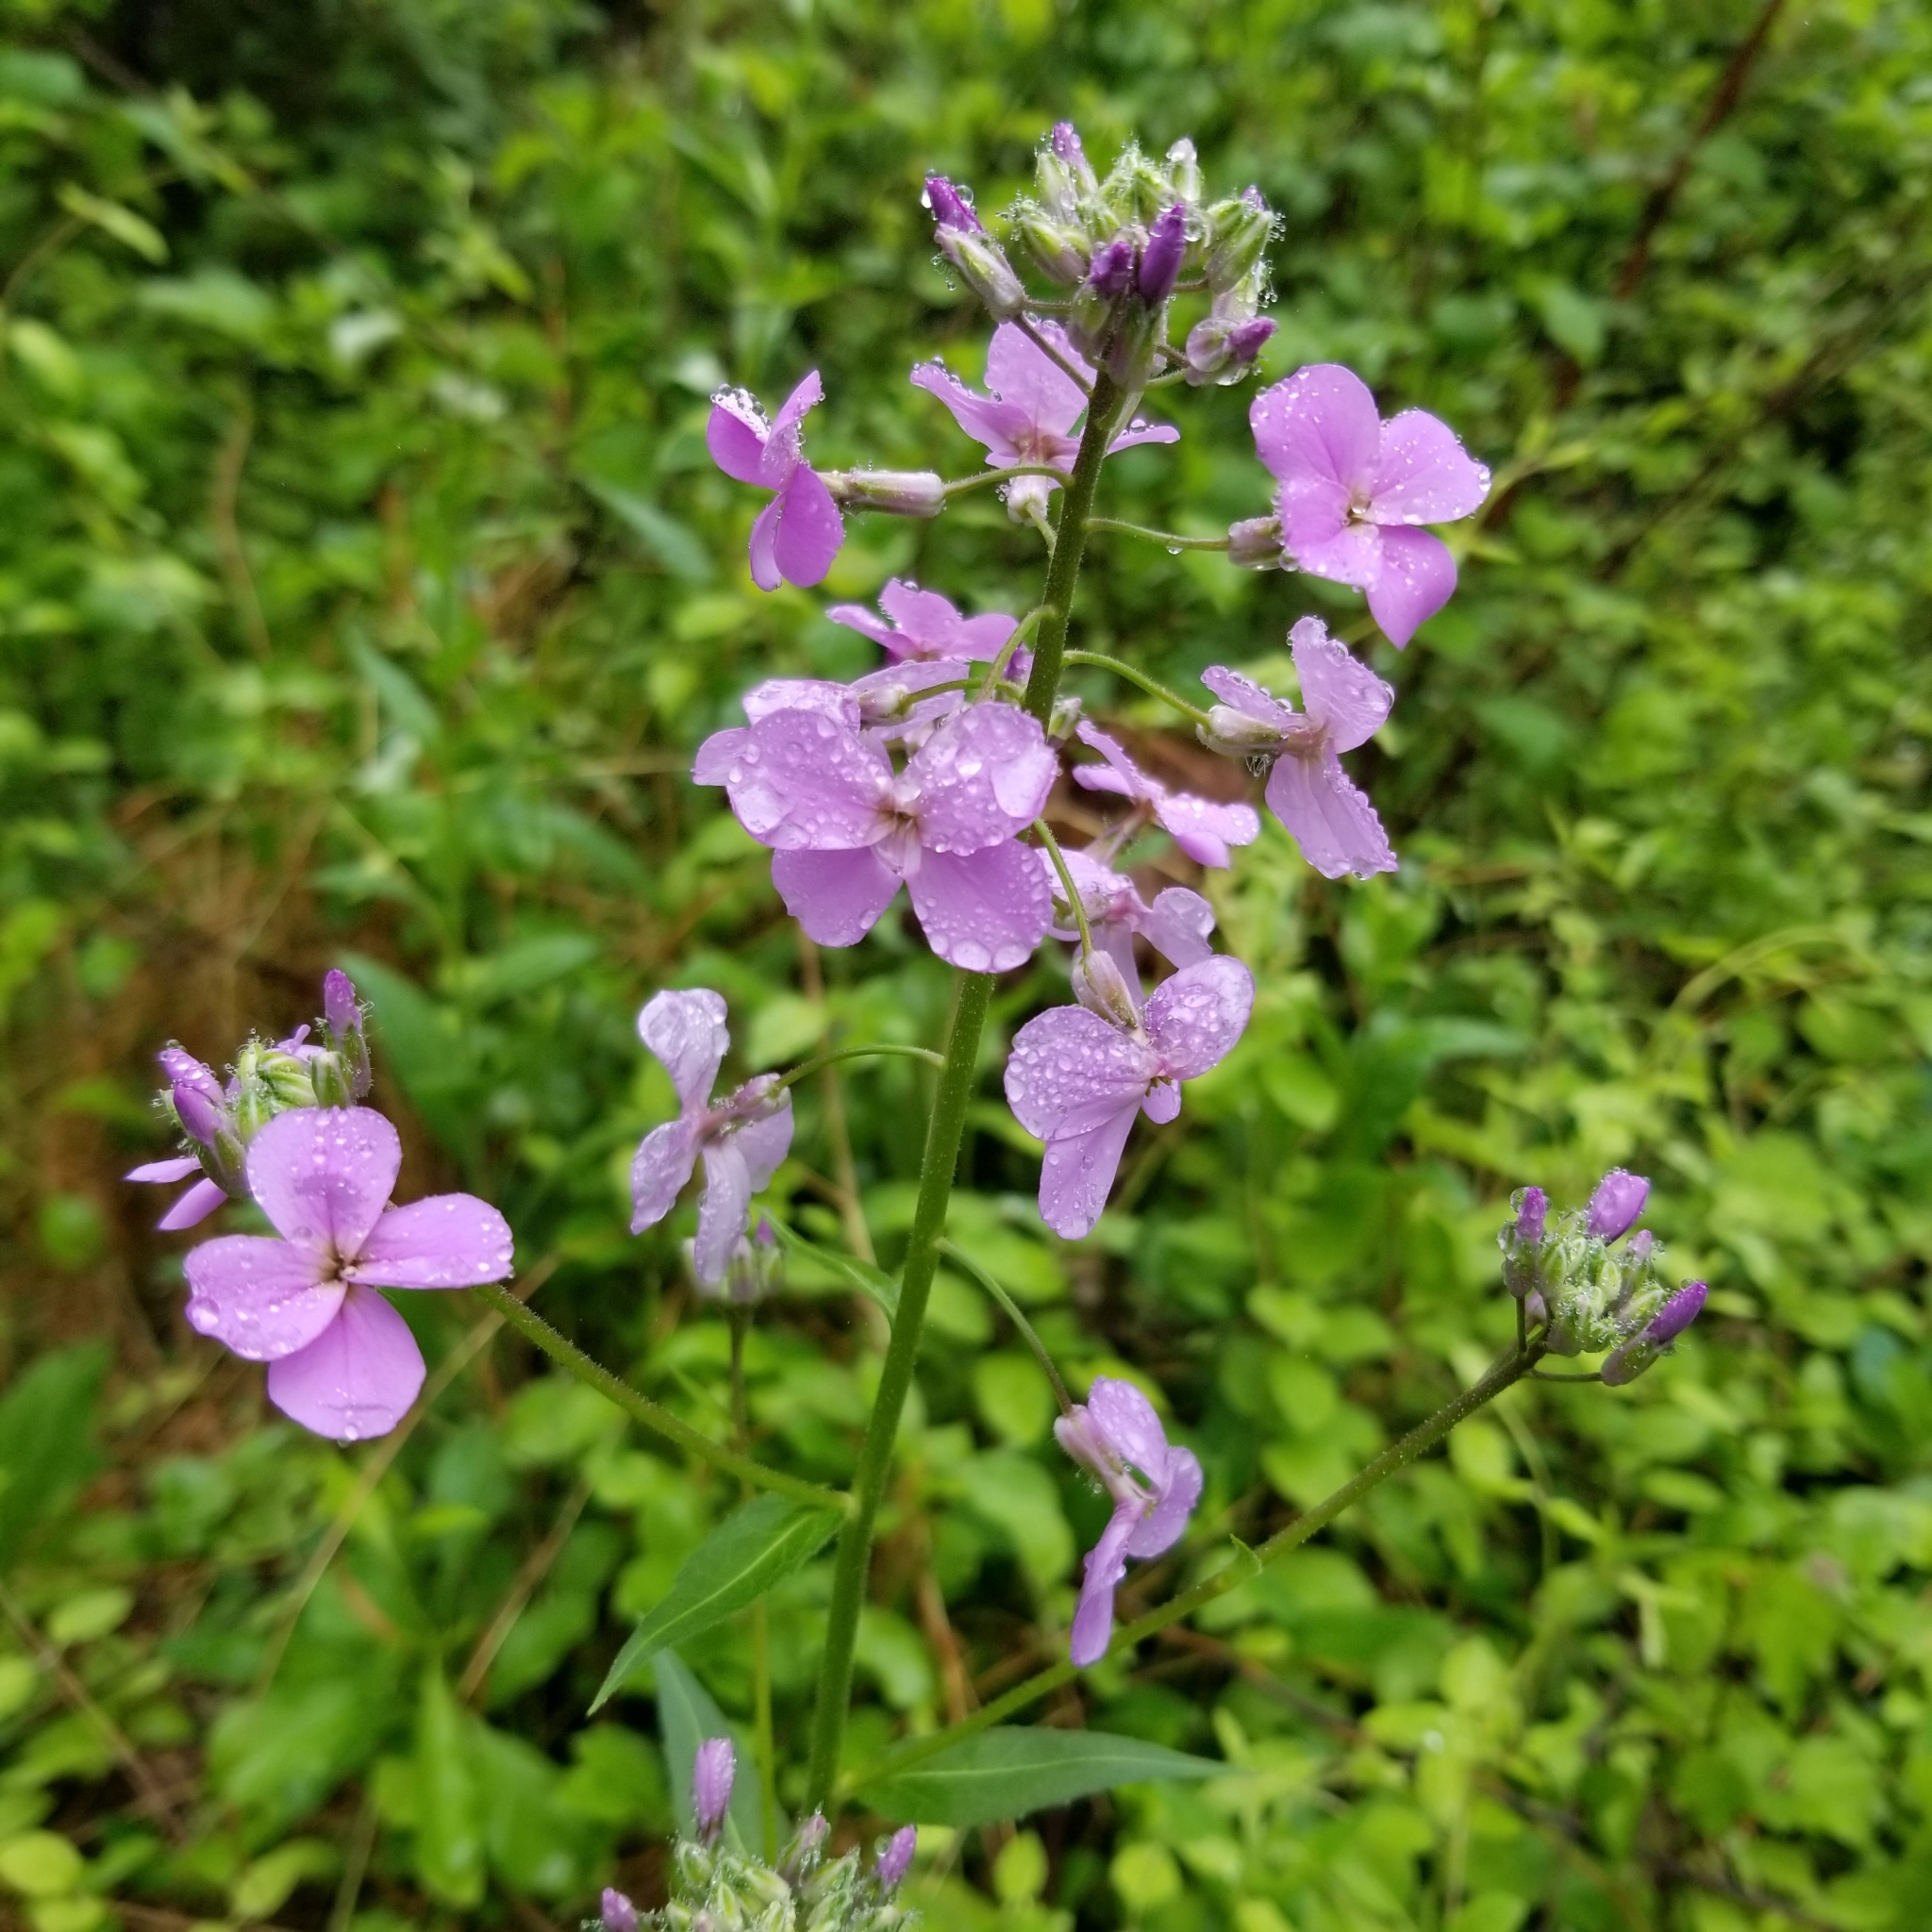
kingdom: Plantae
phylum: Tracheophyta
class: Magnoliopsida
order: Brassicales
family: Brassicaceae
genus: Hesperis
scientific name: Hesperis matronalis
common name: Dame's-violet
